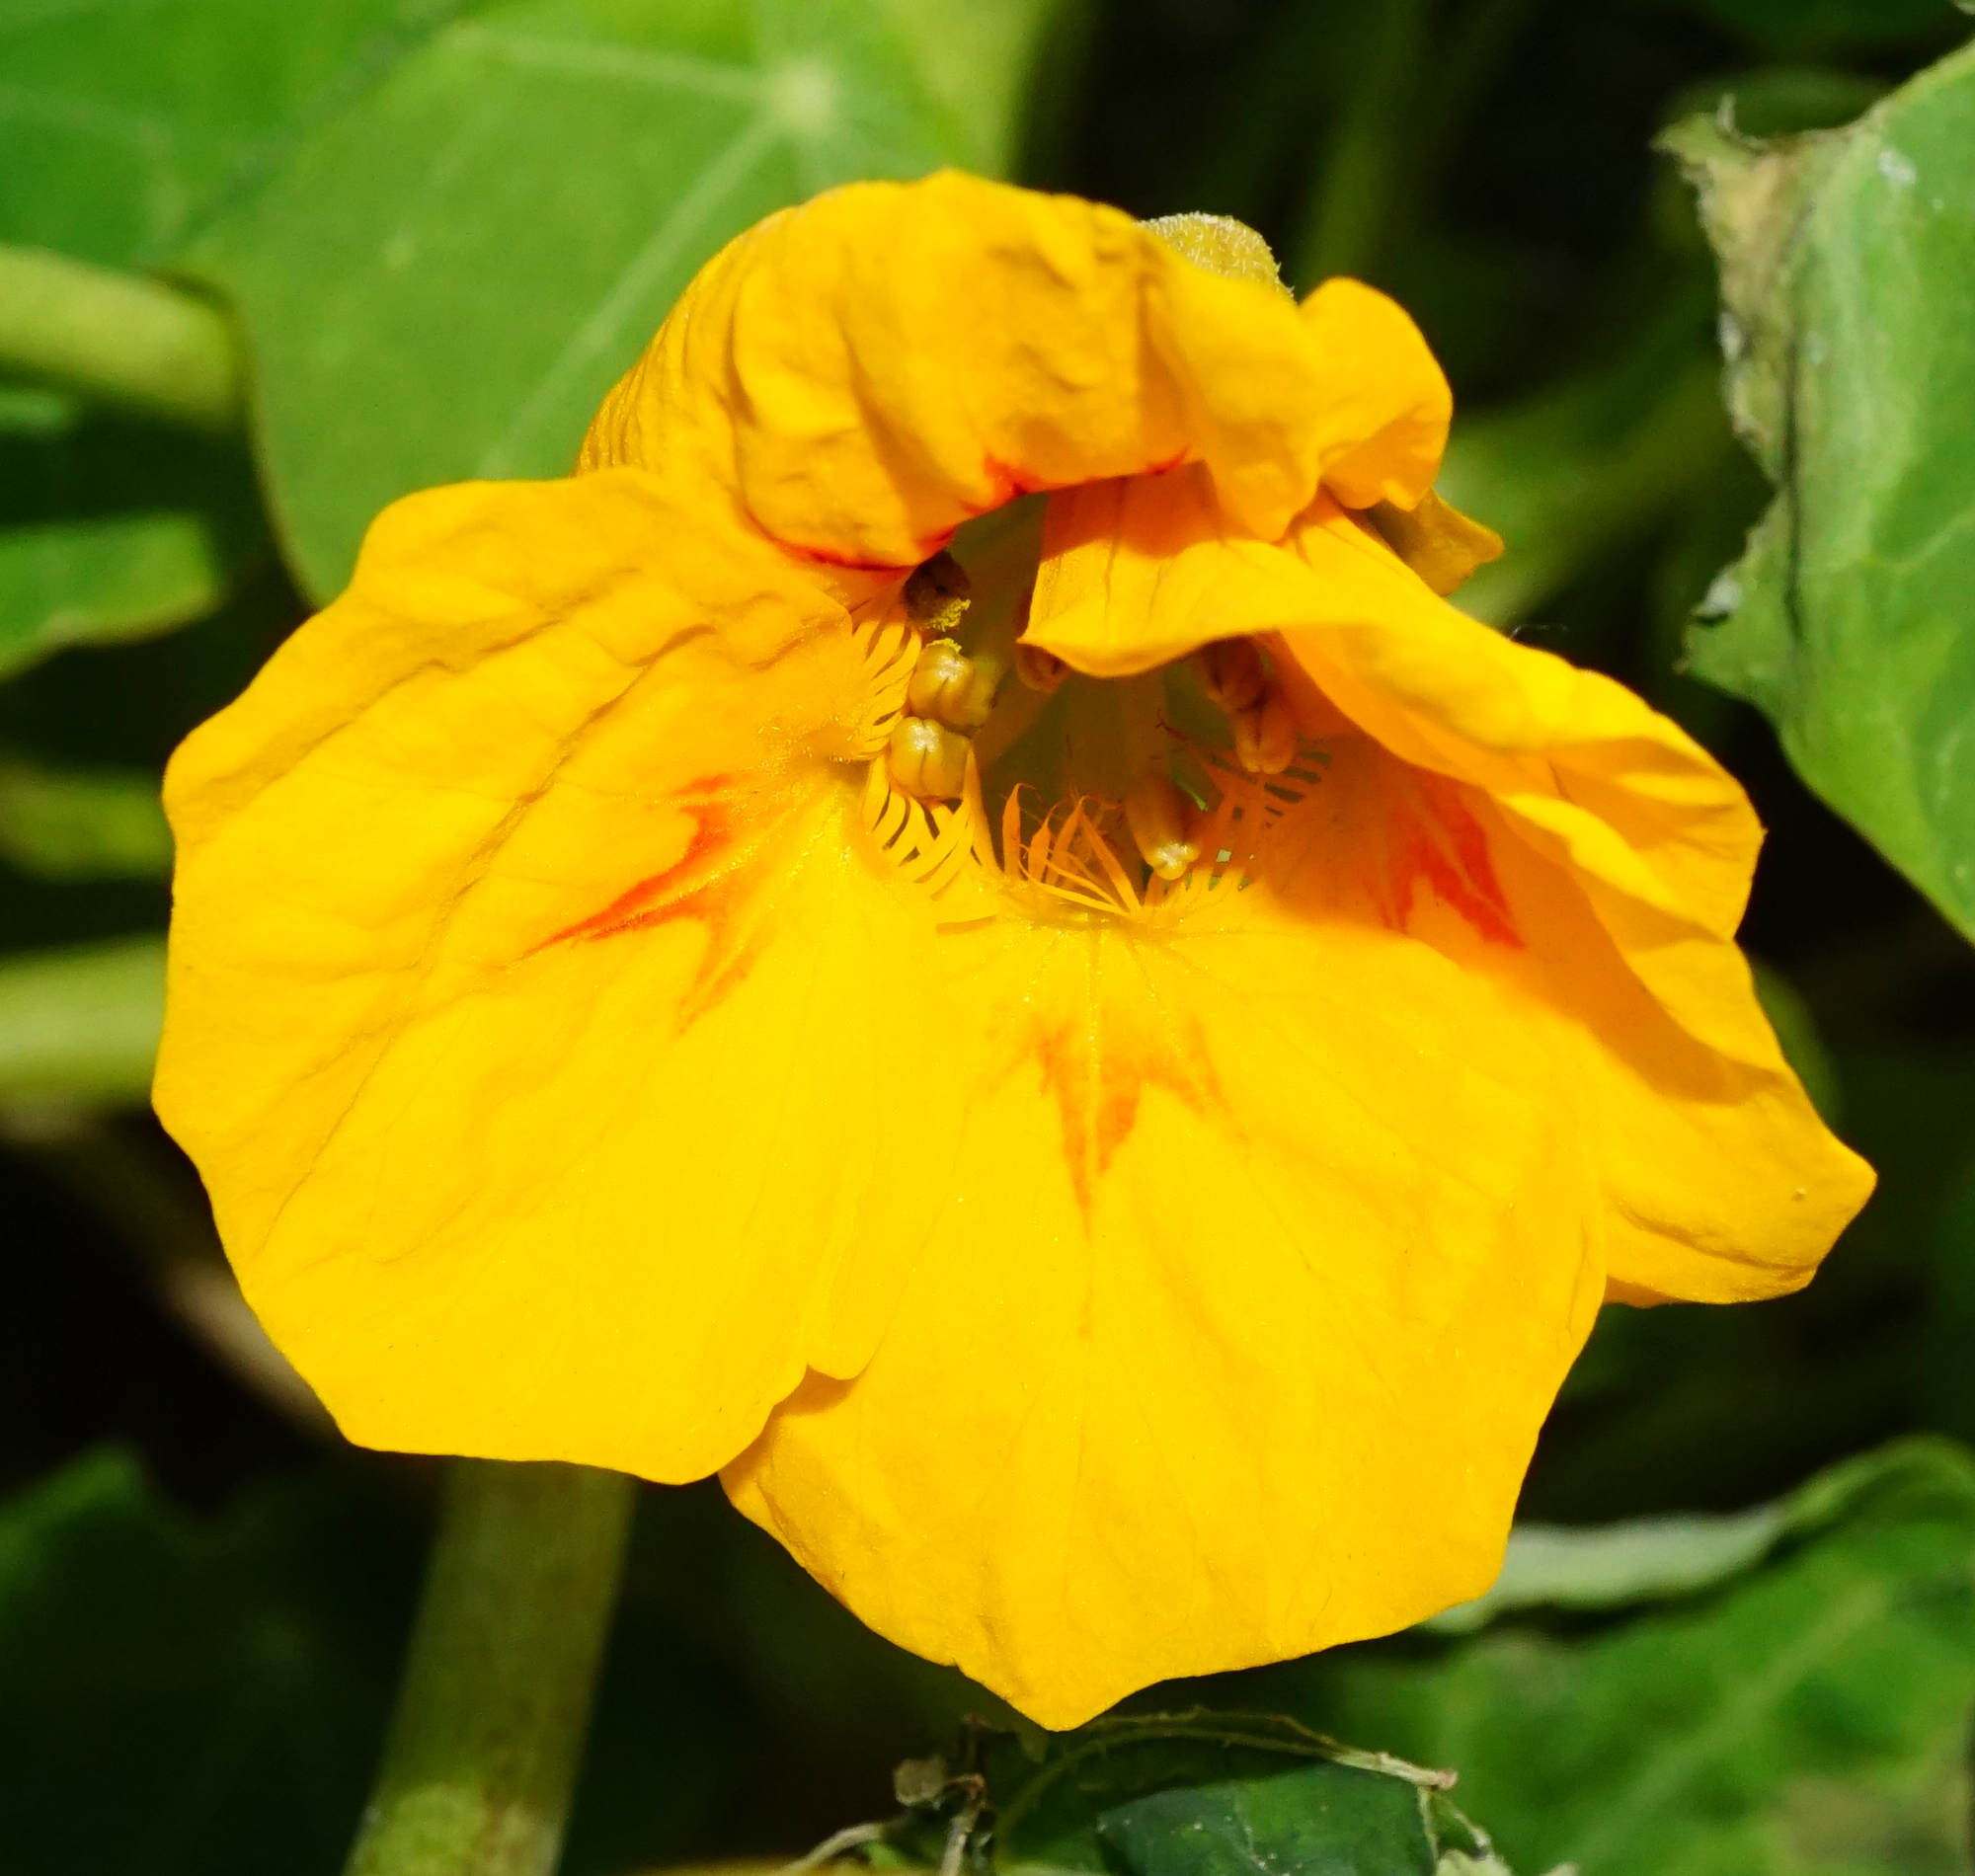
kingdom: Plantae
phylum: Tracheophyta
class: Magnoliopsida
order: Brassicales
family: Tropaeolaceae
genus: Tropaeolum
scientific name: Tropaeolum majus
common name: Nasturtium
